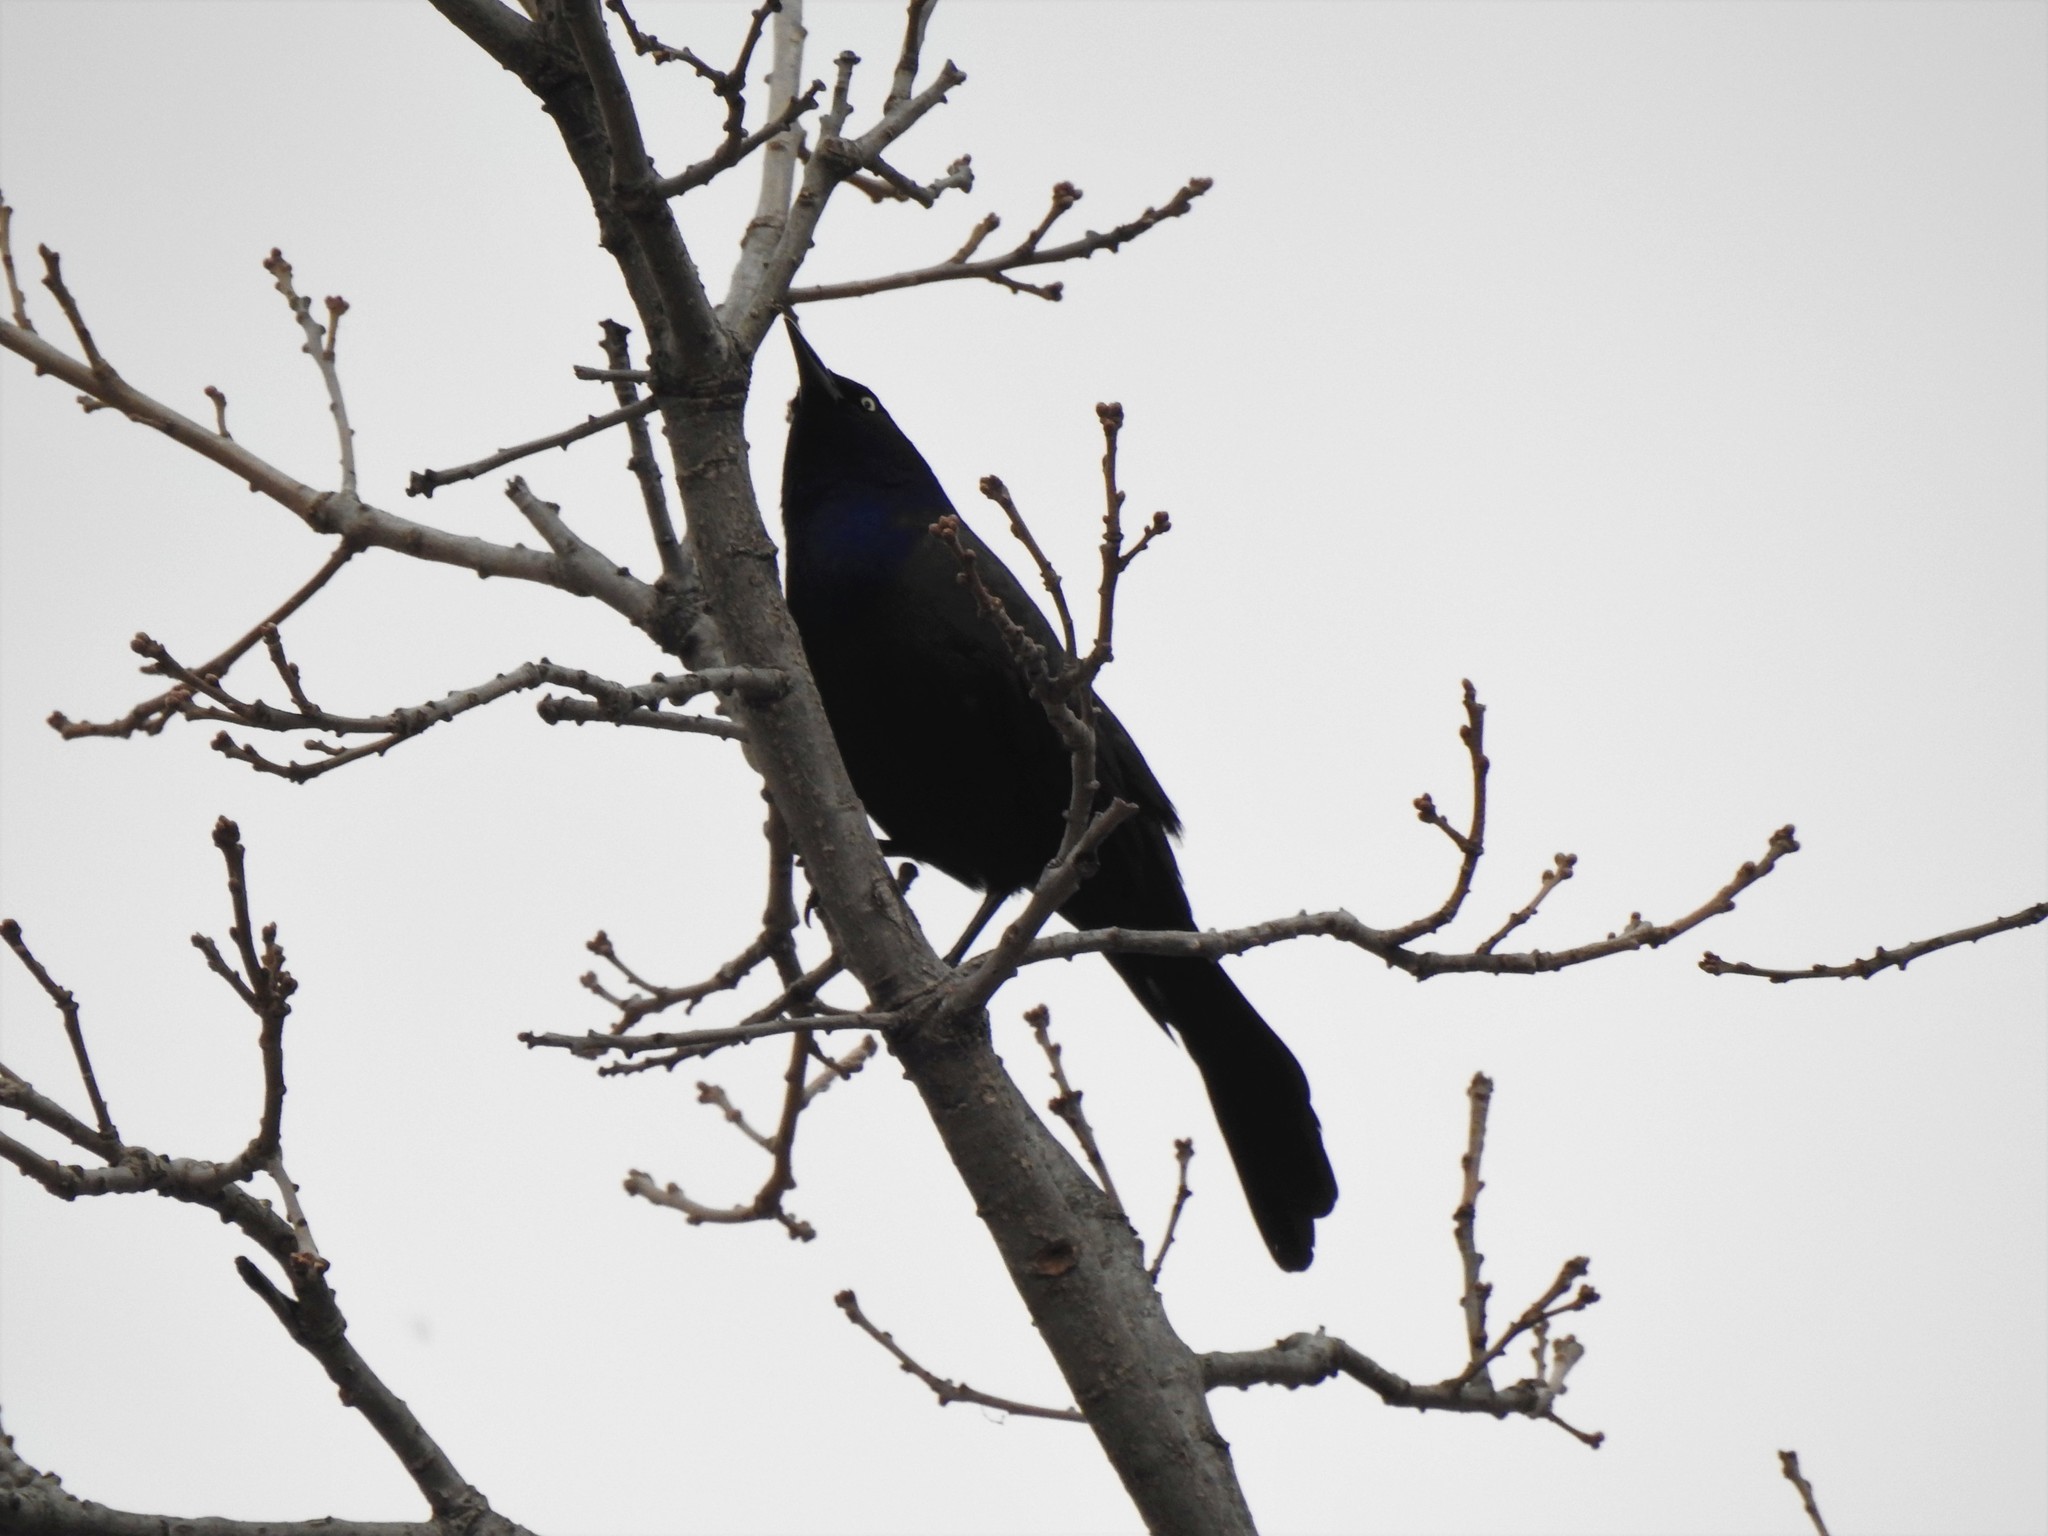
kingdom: Animalia
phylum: Chordata
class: Aves
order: Passeriformes
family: Icteridae
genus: Quiscalus
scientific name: Quiscalus quiscula
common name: Common grackle
